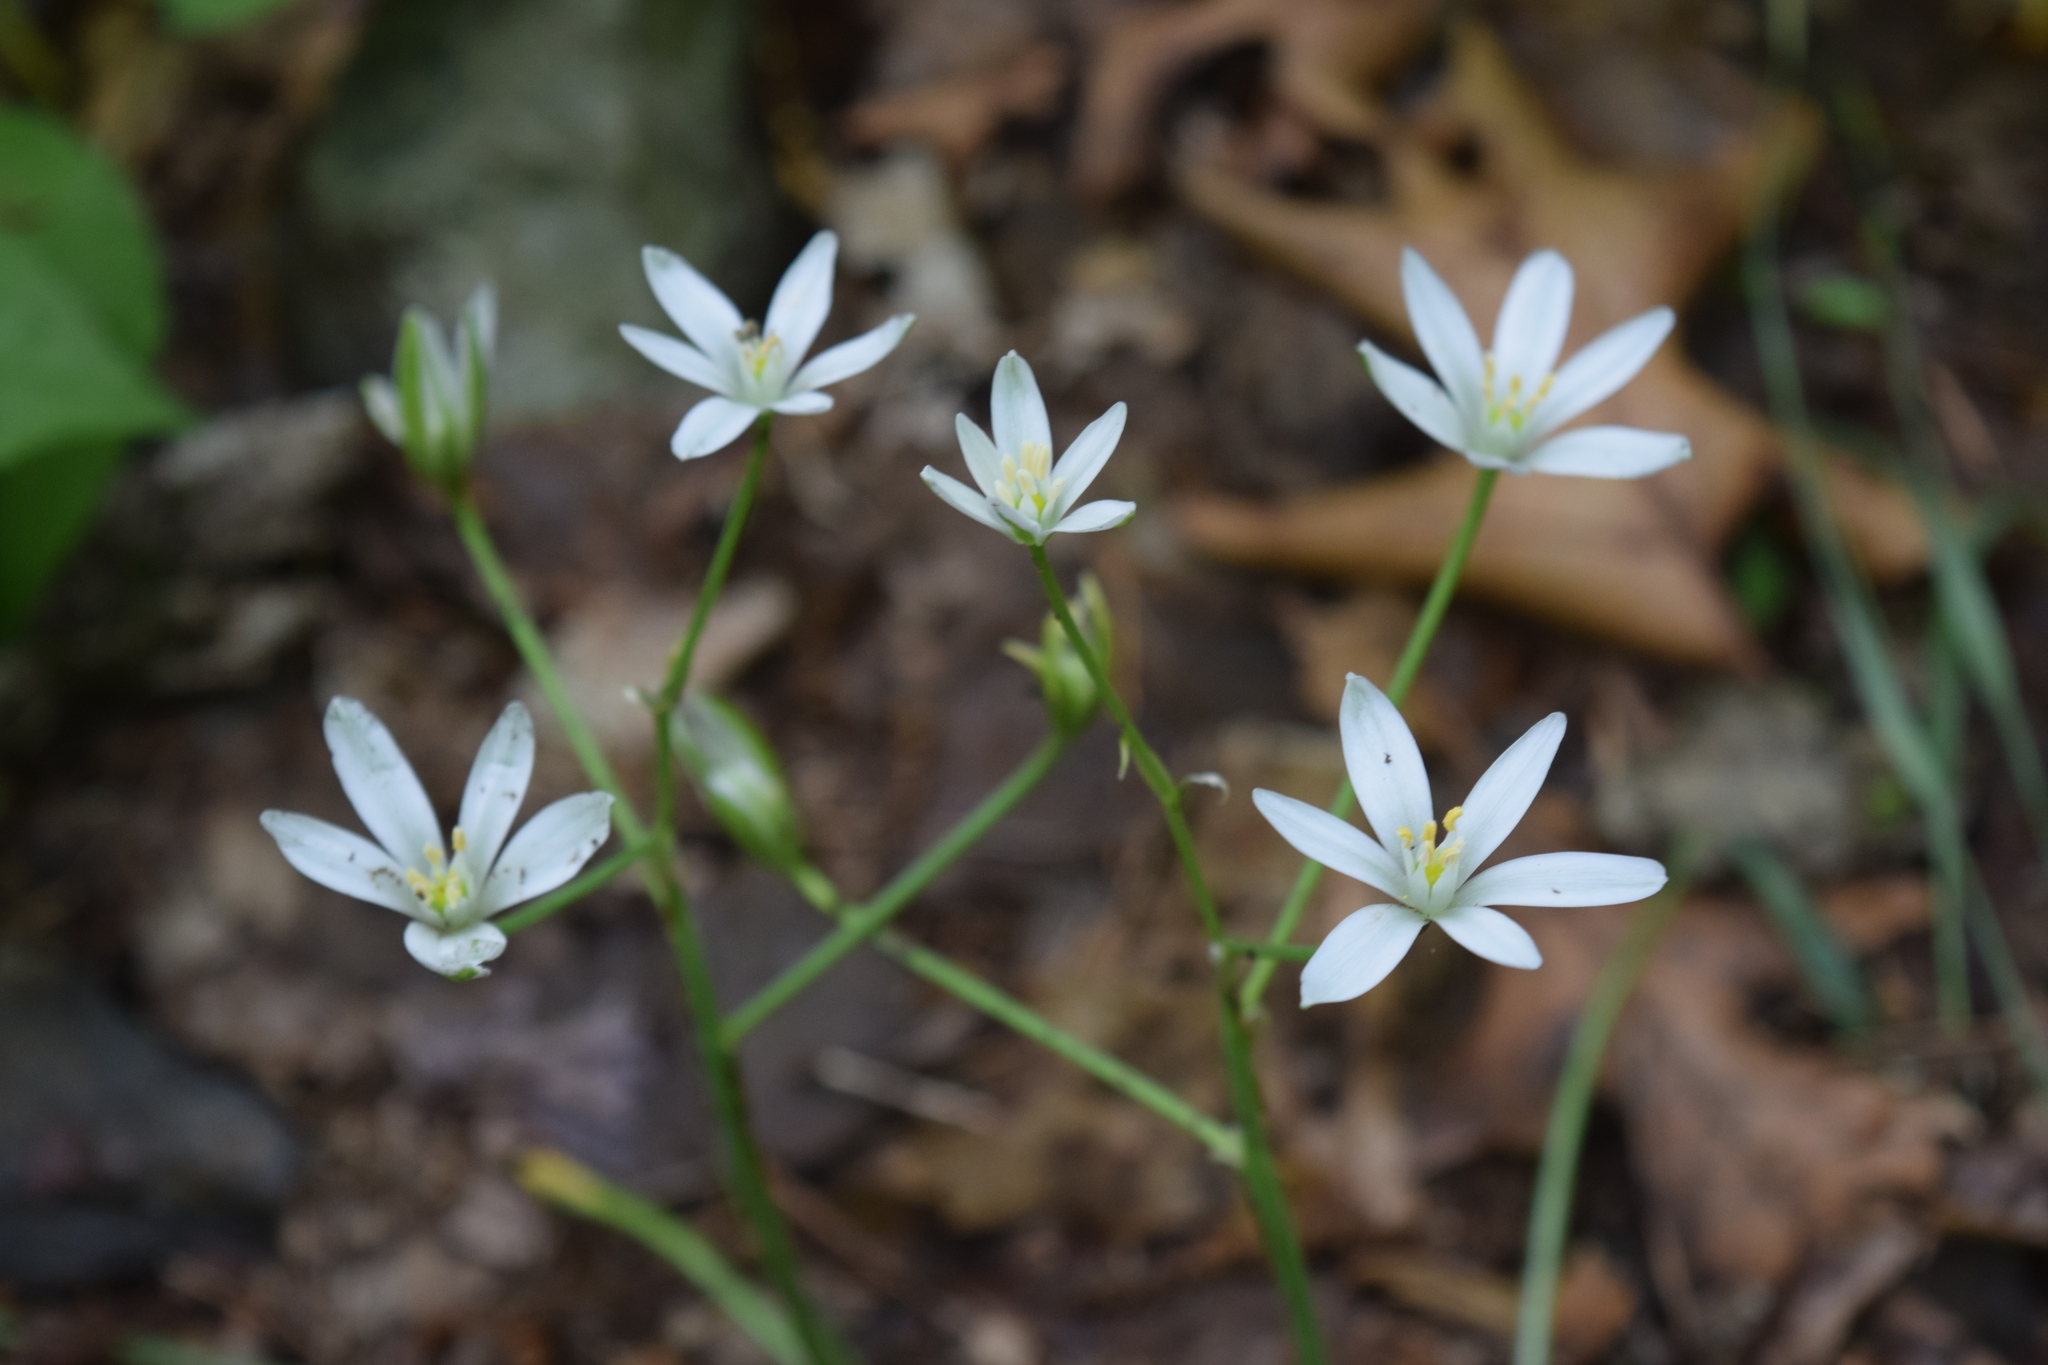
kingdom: Plantae
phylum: Tracheophyta
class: Liliopsida
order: Asparagales
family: Asparagaceae
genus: Ornithogalum
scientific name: Ornithogalum umbellatum
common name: Garden star-of-bethlehem
